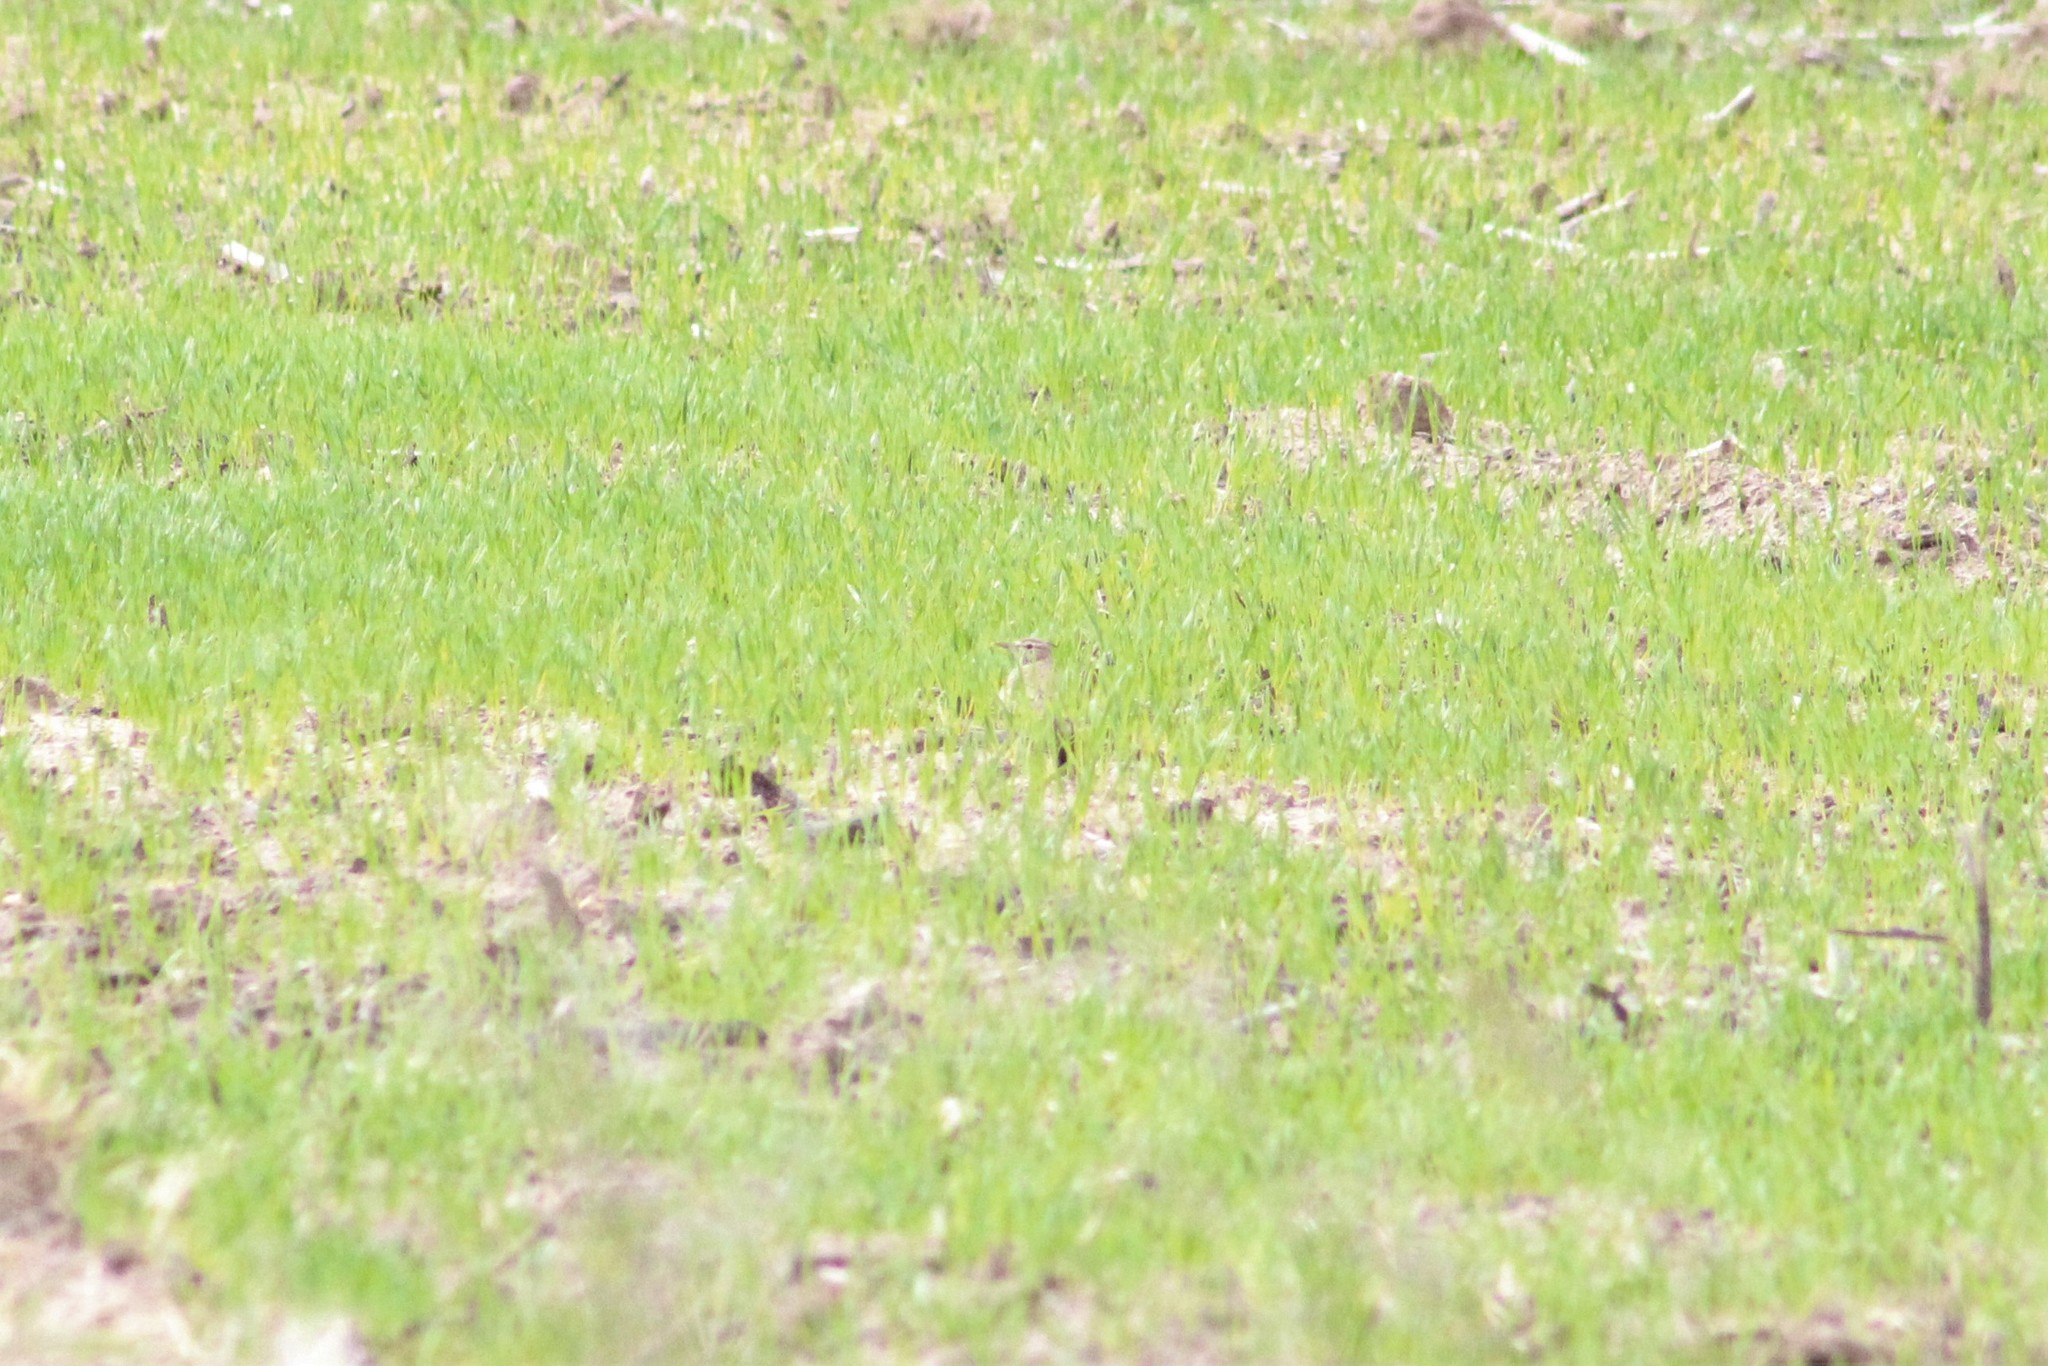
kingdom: Animalia
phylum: Chordata
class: Aves
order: Passeriformes
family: Alaudidae
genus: Galerida
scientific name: Galerida cristata
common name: Crested lark
